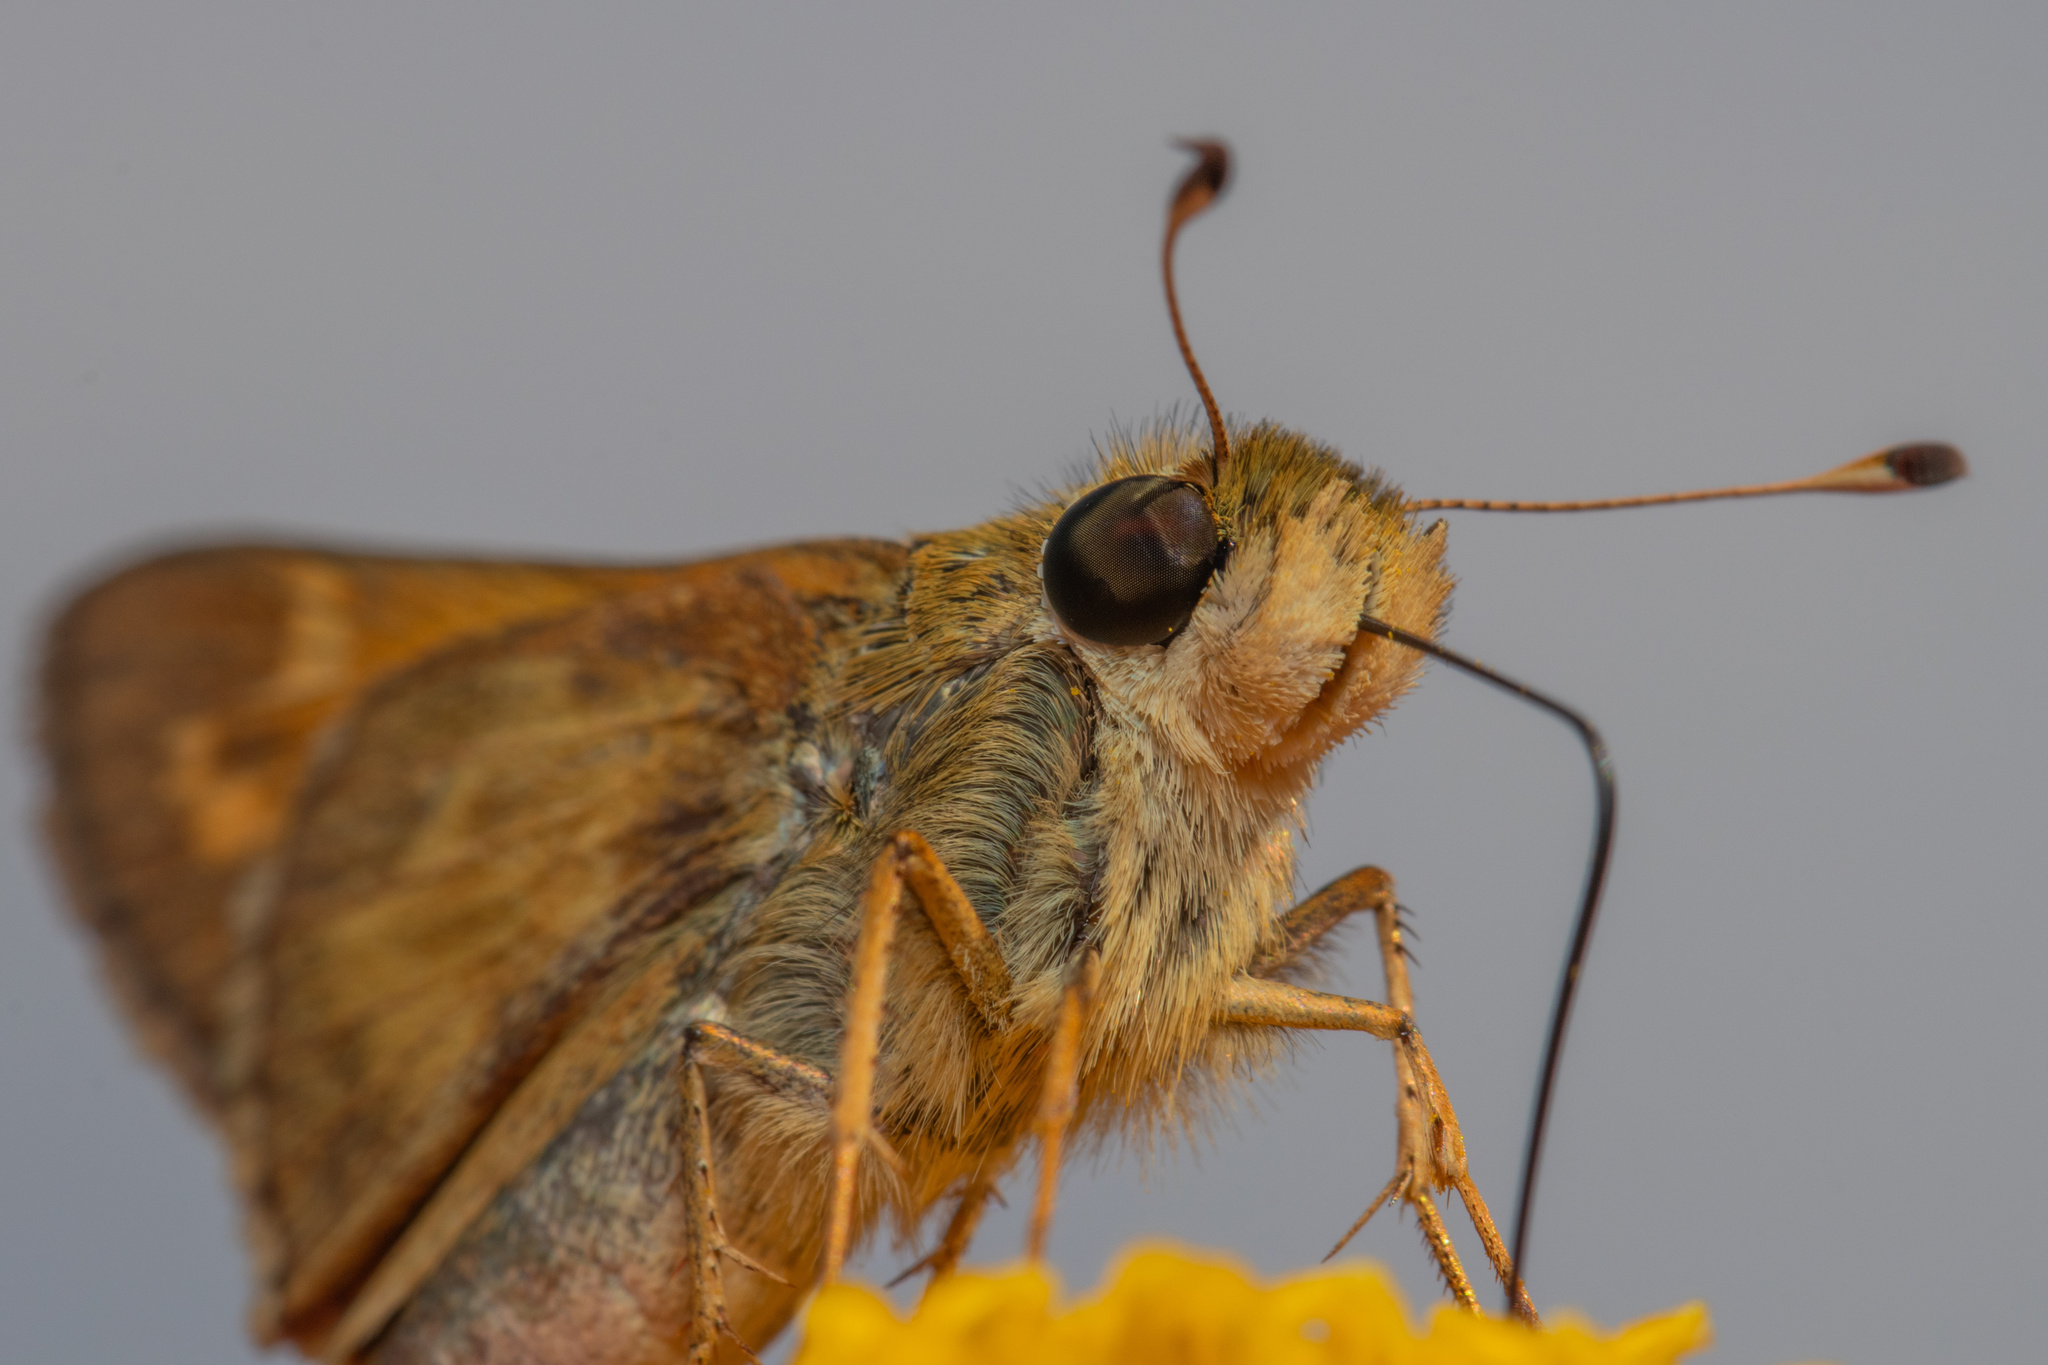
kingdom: Animalia
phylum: Arthropoda
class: Insecta
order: Lepidoptera
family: Hesperiidae
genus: Atalopedes
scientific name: Atalopedes
